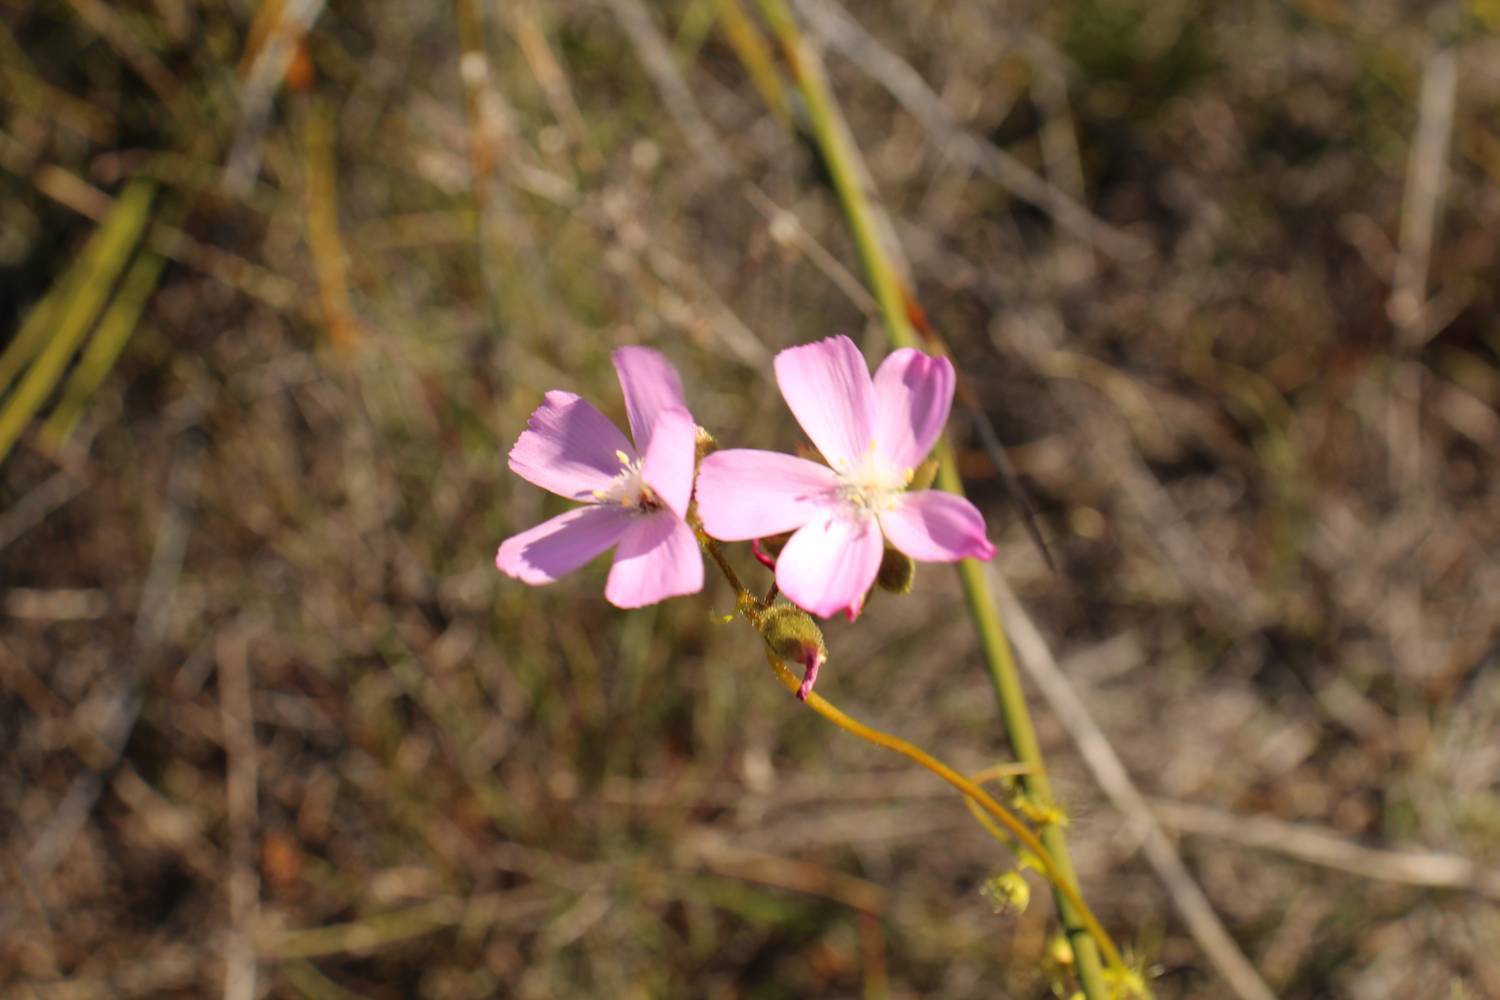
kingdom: Plantae
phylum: Tracheophyta
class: Magnoliopsida
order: Caryophyllales
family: Droseraceae
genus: Drosera
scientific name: Drosera neesii
